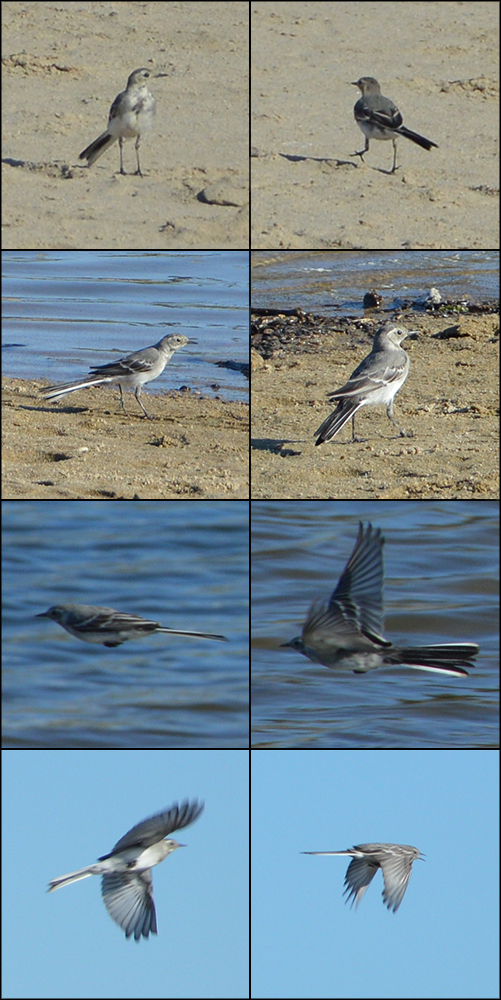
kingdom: Animalia
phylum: Chordata
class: Aves
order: Passeriformes
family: Motacillidae
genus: Motacilla
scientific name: Motacilla alba
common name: White wagtail
